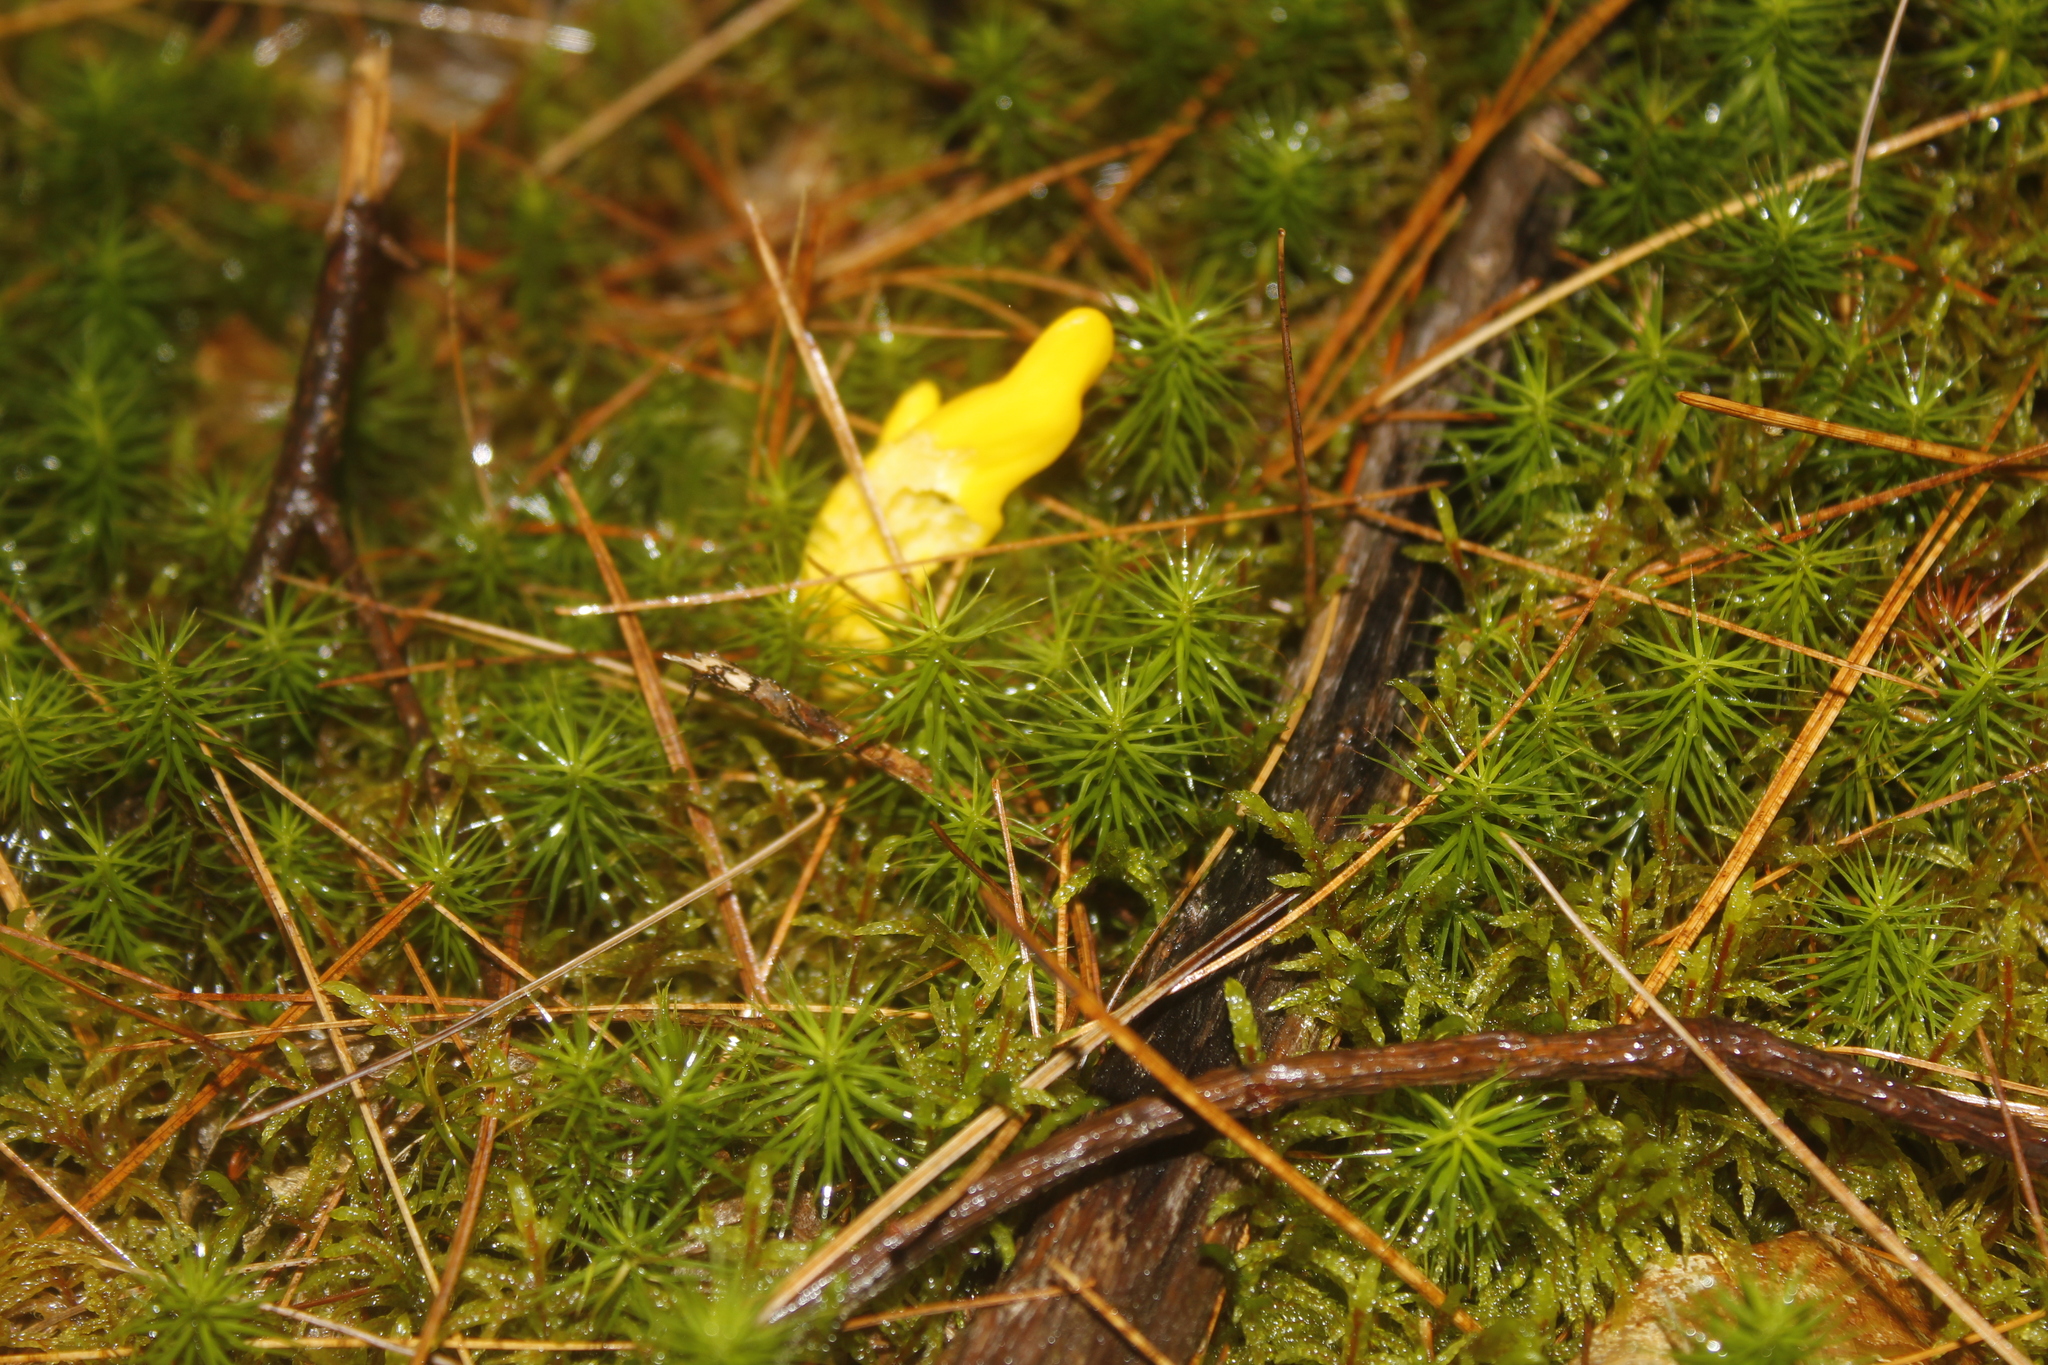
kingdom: Fungi
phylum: Ascomycota
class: Neolectomycetes
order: Neolectales
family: Neolectaceae
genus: Neolecta
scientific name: Neolecta irregularis
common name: Irregular earth tongue
